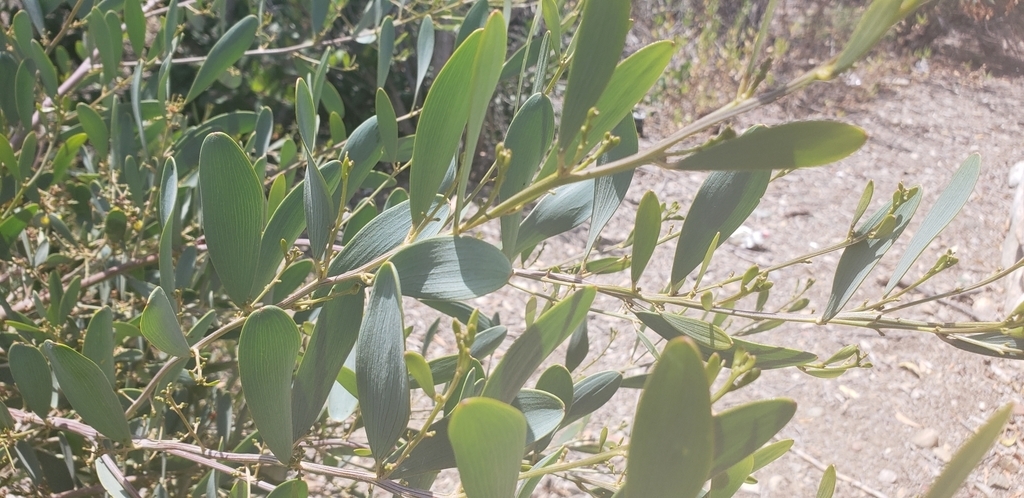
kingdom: Plantae
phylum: Tracheophyta
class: Magnoliopsida
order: Fabales
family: Fabaceae
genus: Acacia
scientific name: Acacia redolens
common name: Bank catclaw
